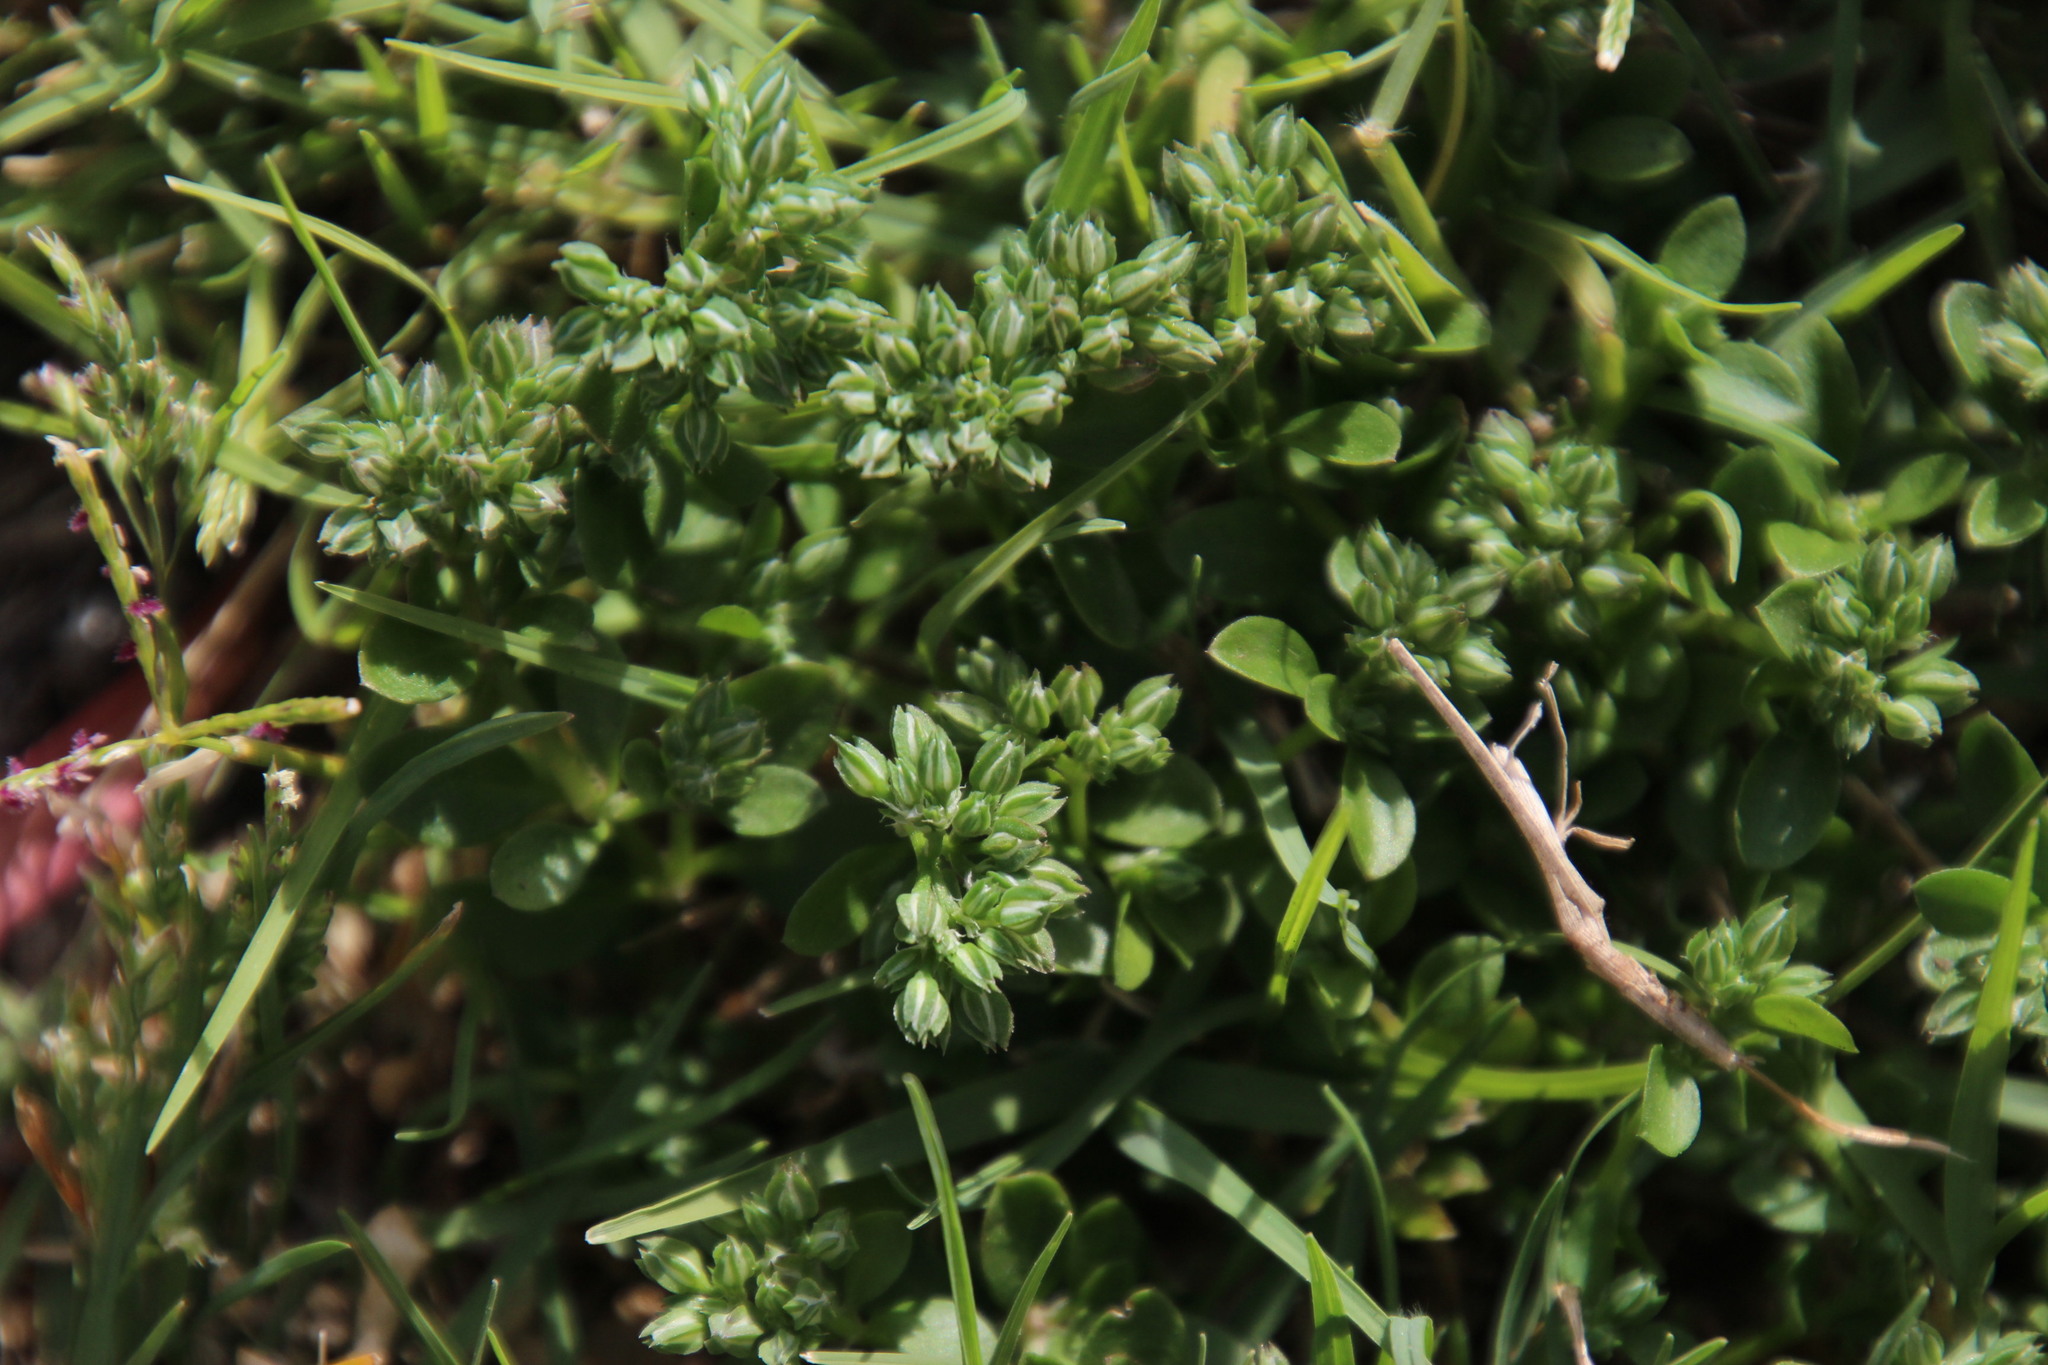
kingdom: Plantae
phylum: Tracheophyta
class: Magnoliopsida
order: Caryophyllales
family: Caryophyllaceae
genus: Polycarpon
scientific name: Polycarpon tetraphyllum
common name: Four-leaved all-seed
